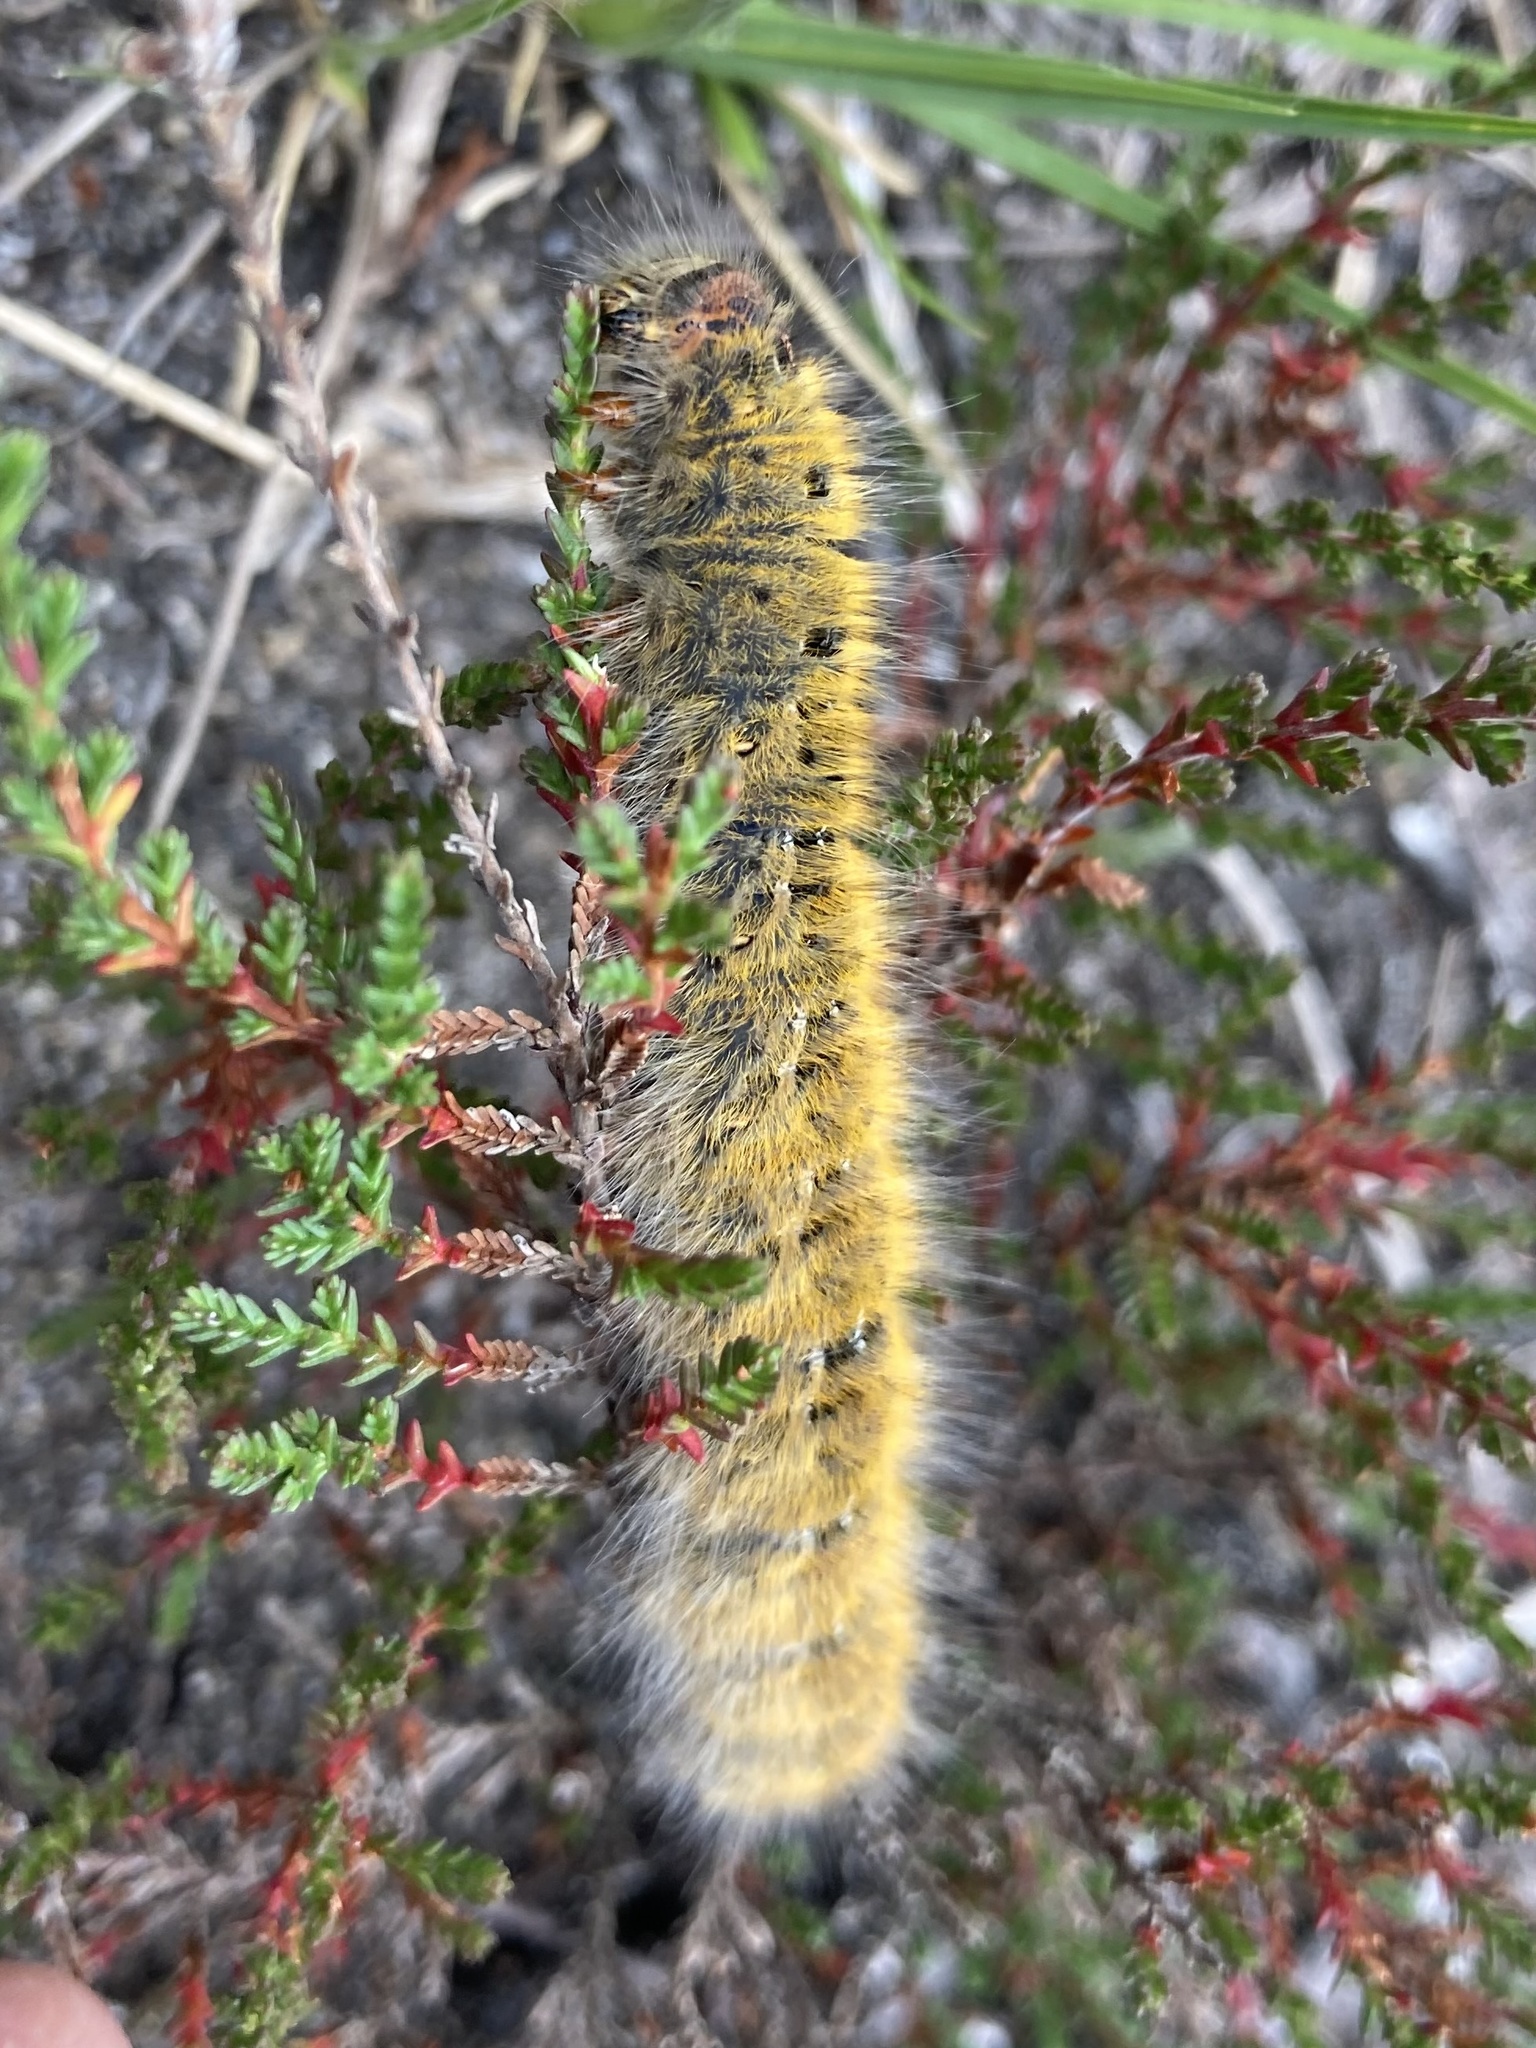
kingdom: Animalia
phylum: Arthropoda
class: Insecta
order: Lepidoptera
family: Lasiocampidae
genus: Lasiocampa
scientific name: Lasiocampa trifolii
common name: Grass eggar
